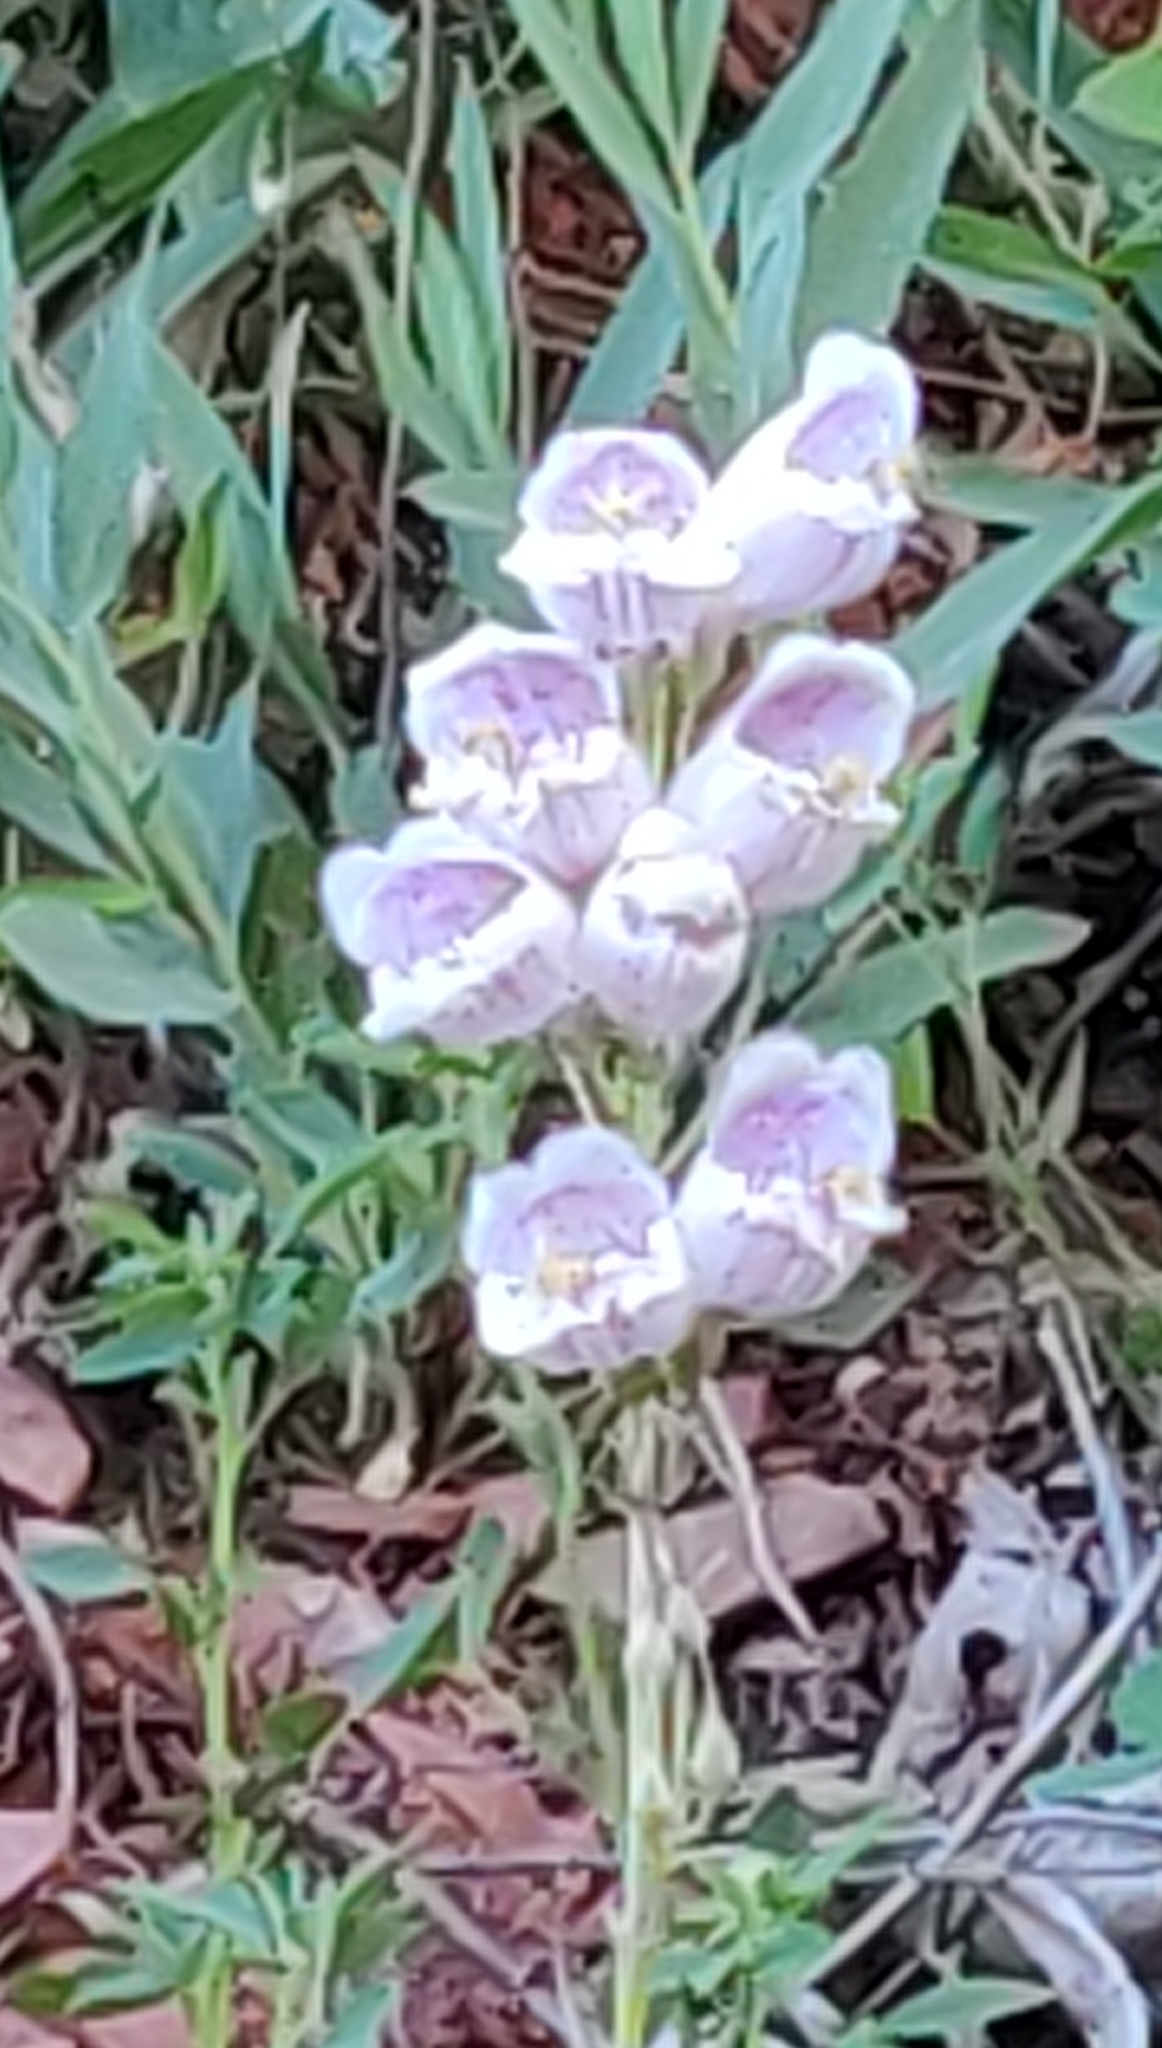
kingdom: Plantae
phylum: Tracheophyta
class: Magnoliopsida
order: Lamiales
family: Plantaginaceae
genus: Penstemon
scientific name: Penstemon palmeri
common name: Palmer penstemon
